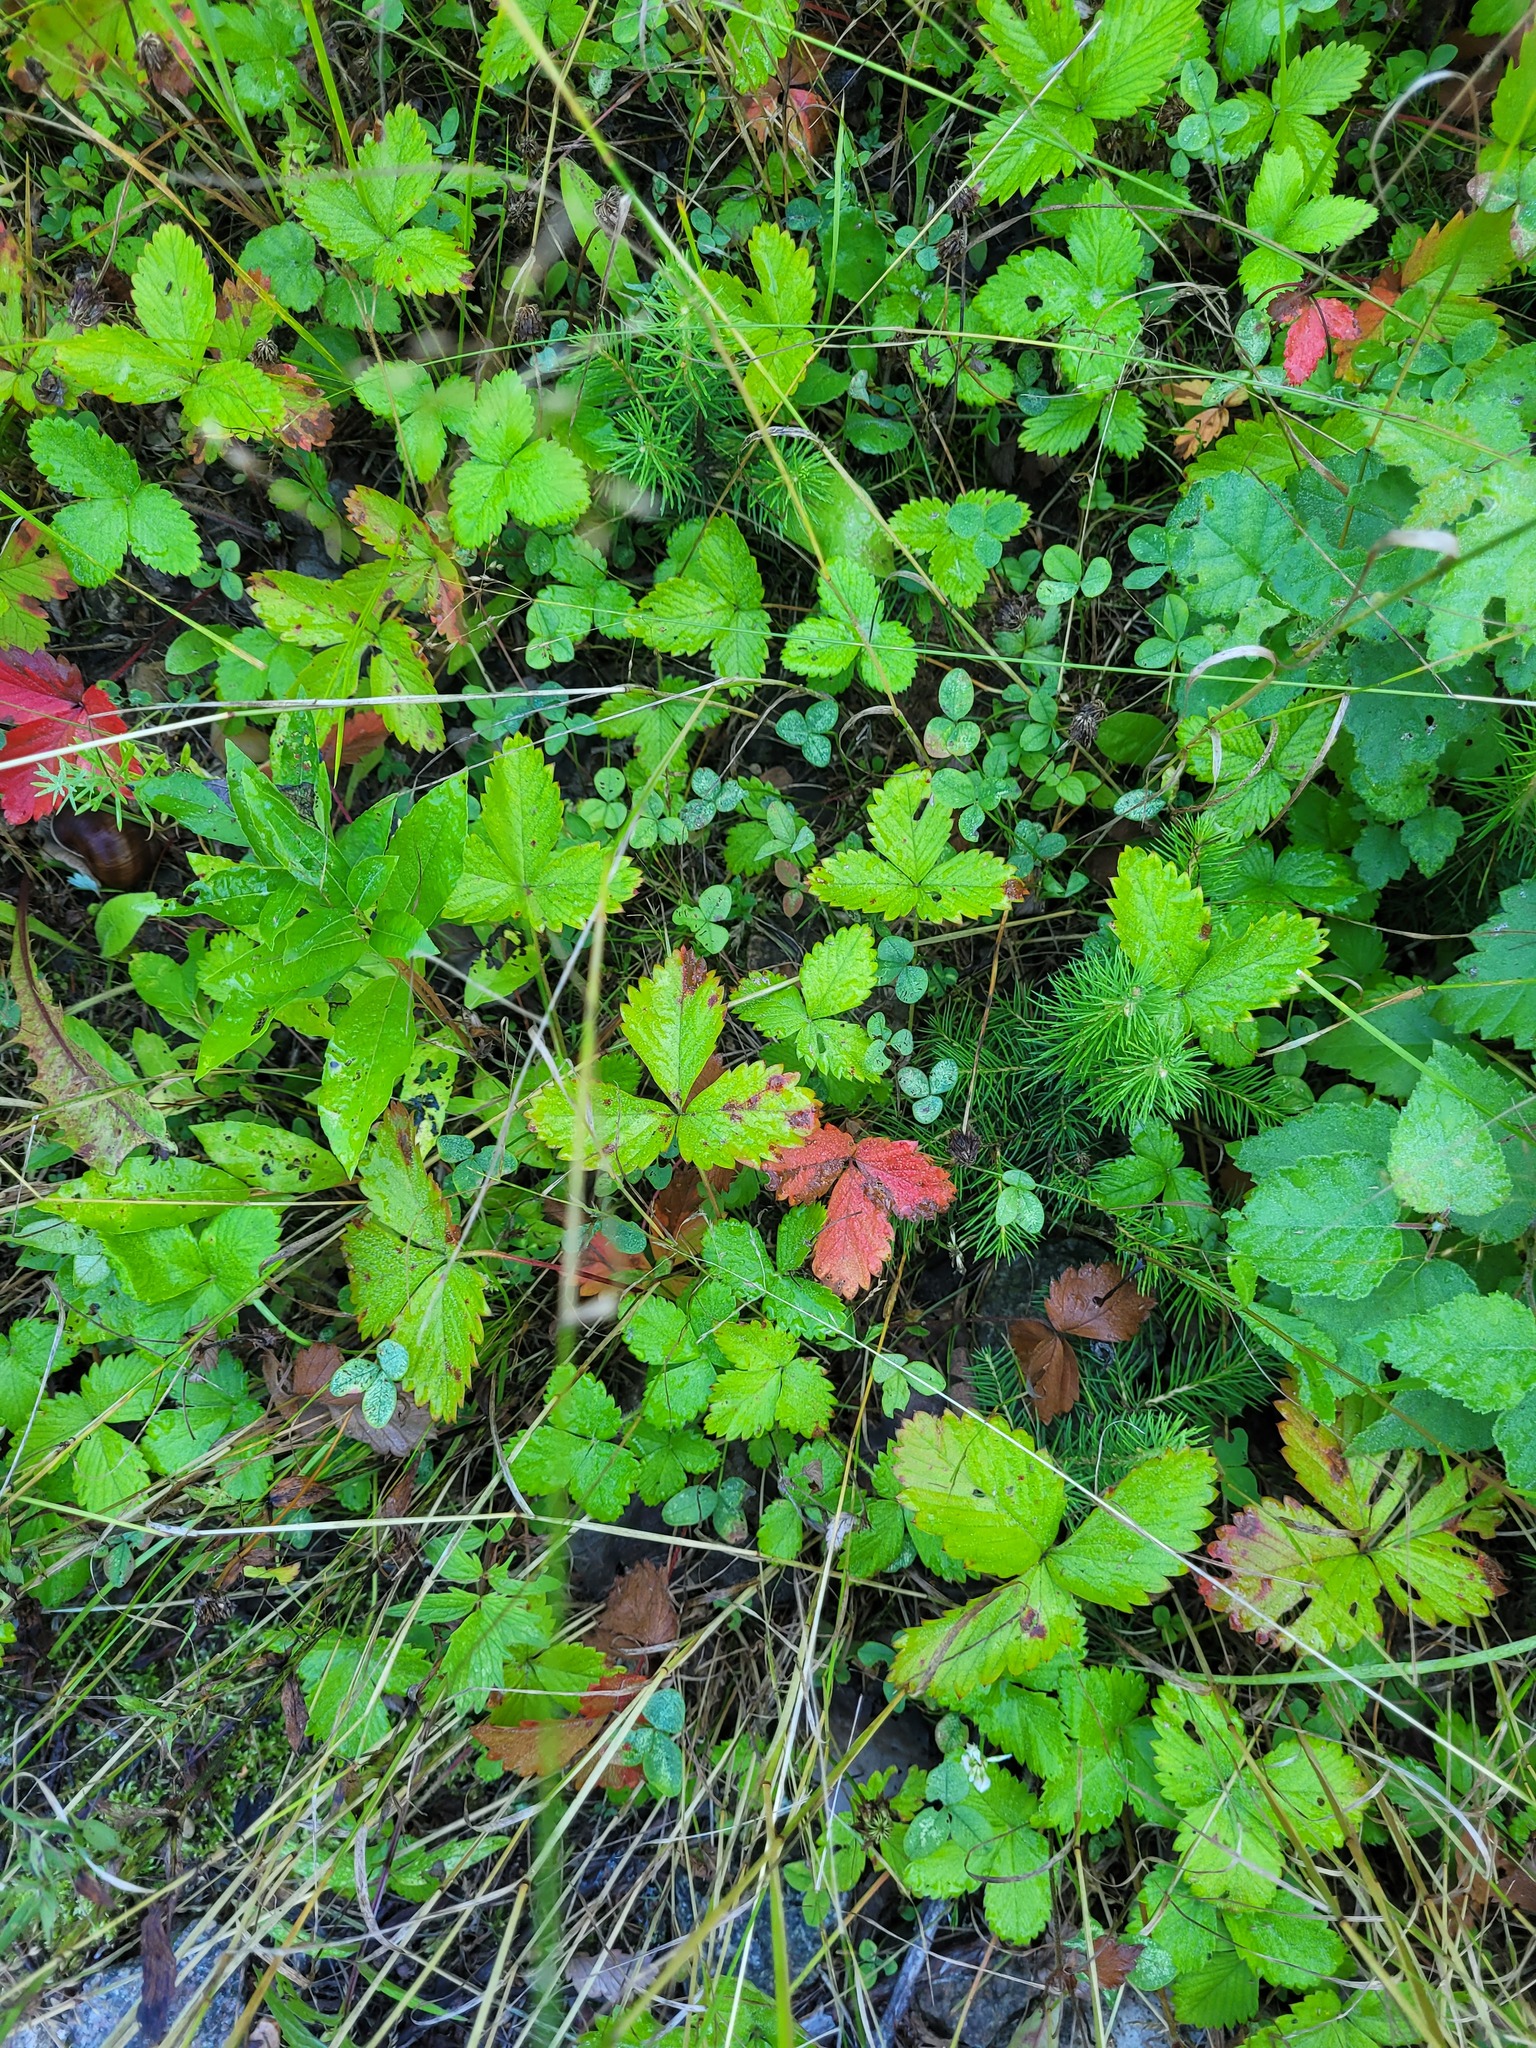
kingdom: Plantae
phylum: Tracheophyta
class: Magnoliopsida
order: Rosales
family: Rosaceae
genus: Fragaria
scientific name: Fragaria vesca
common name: Wild strawberry
